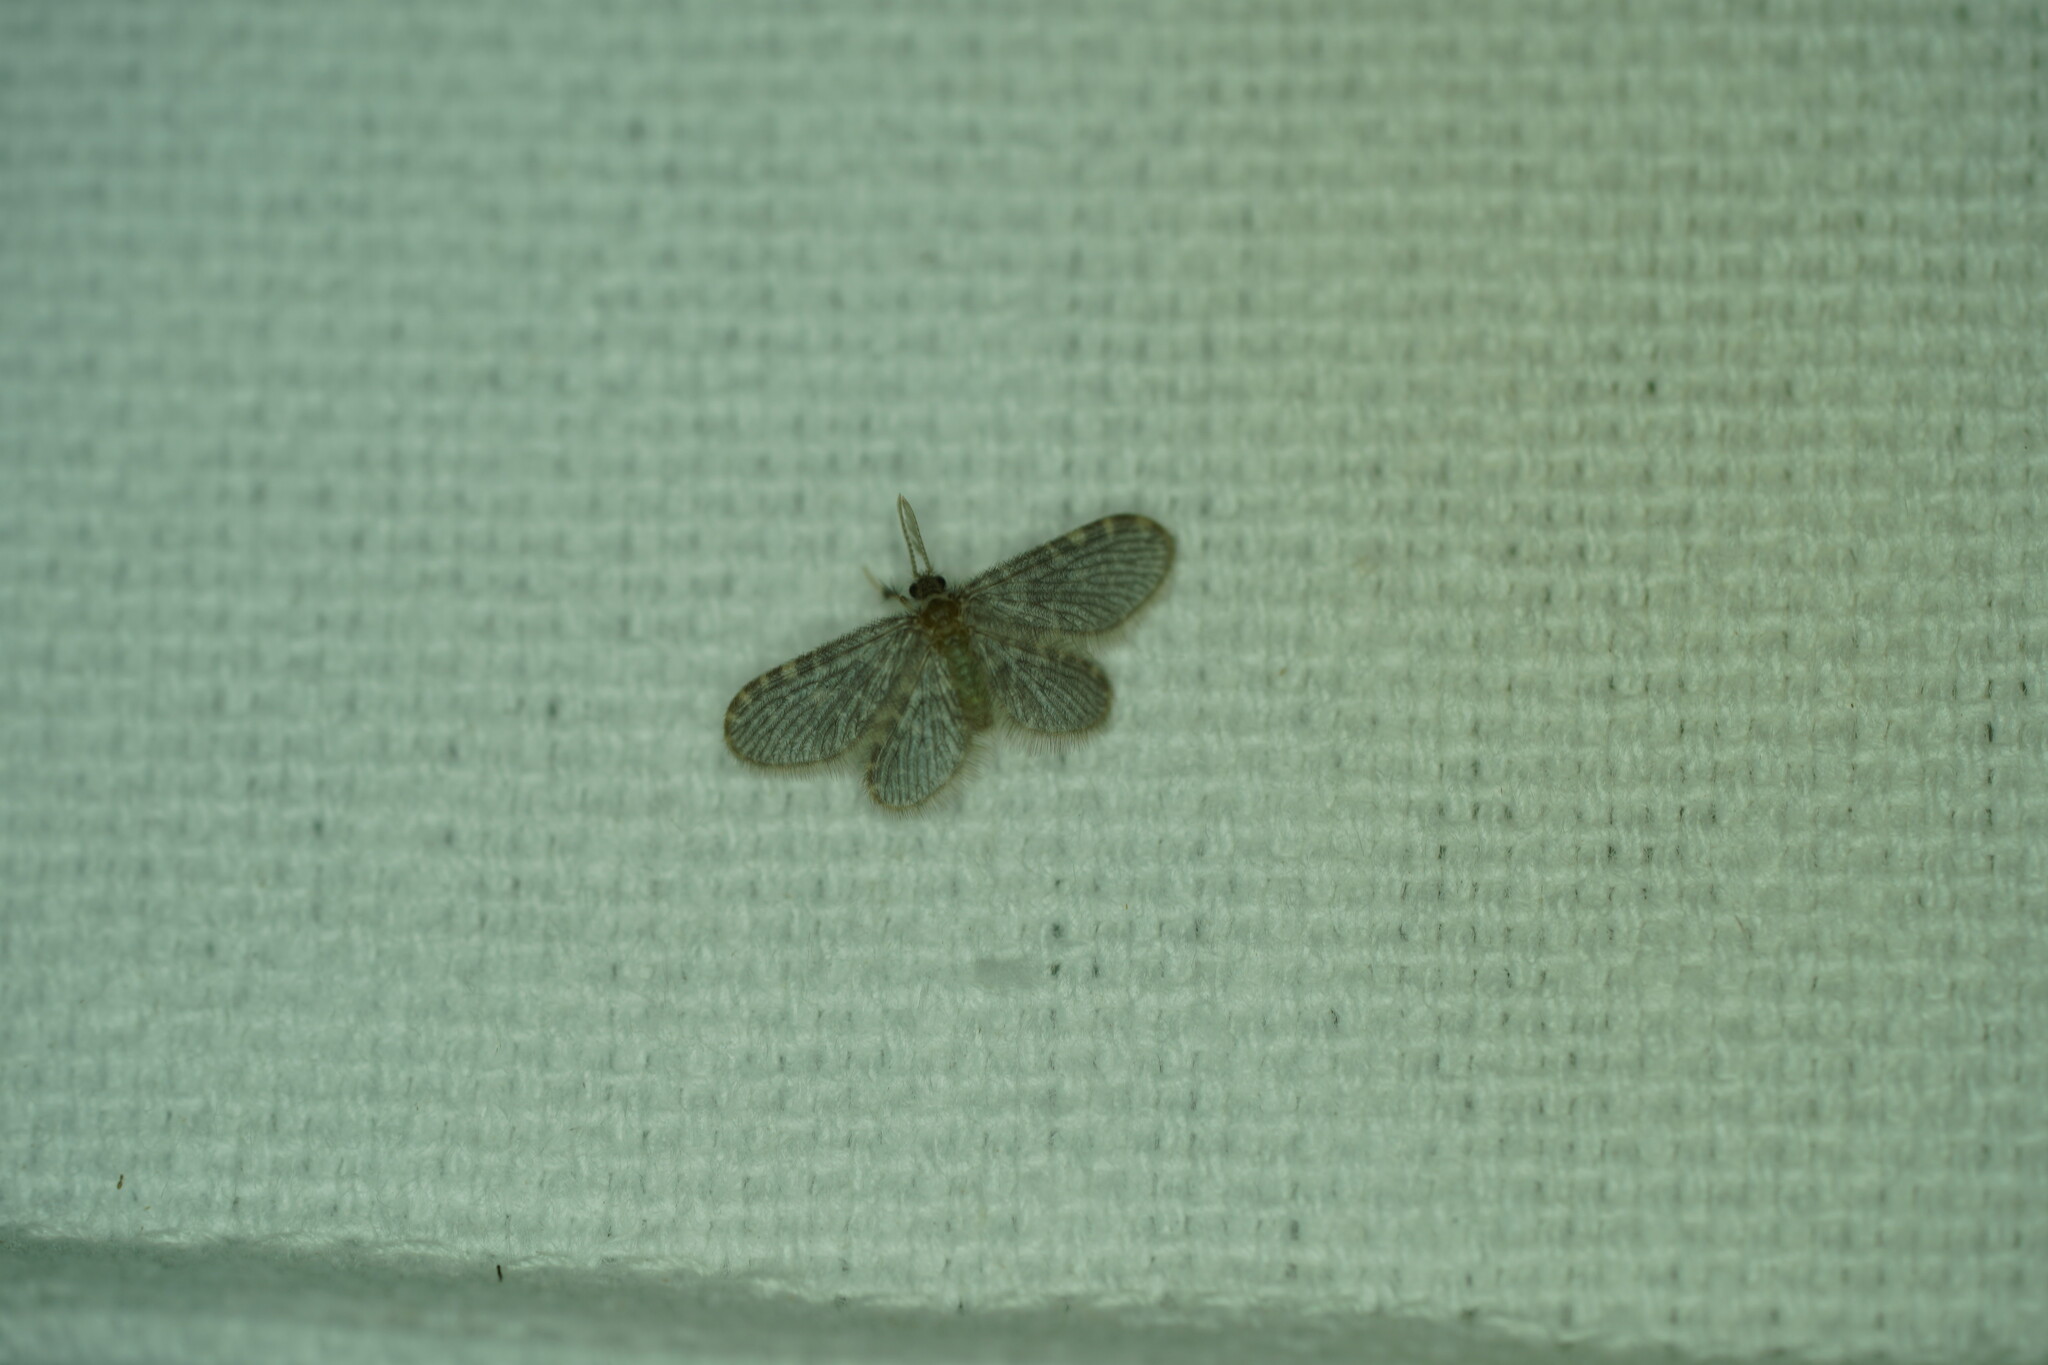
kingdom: Animalia
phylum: Arthropoda
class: Insecta
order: Neuroptera
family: Dilaridae
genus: Nallachius
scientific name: Nallachius americanus
